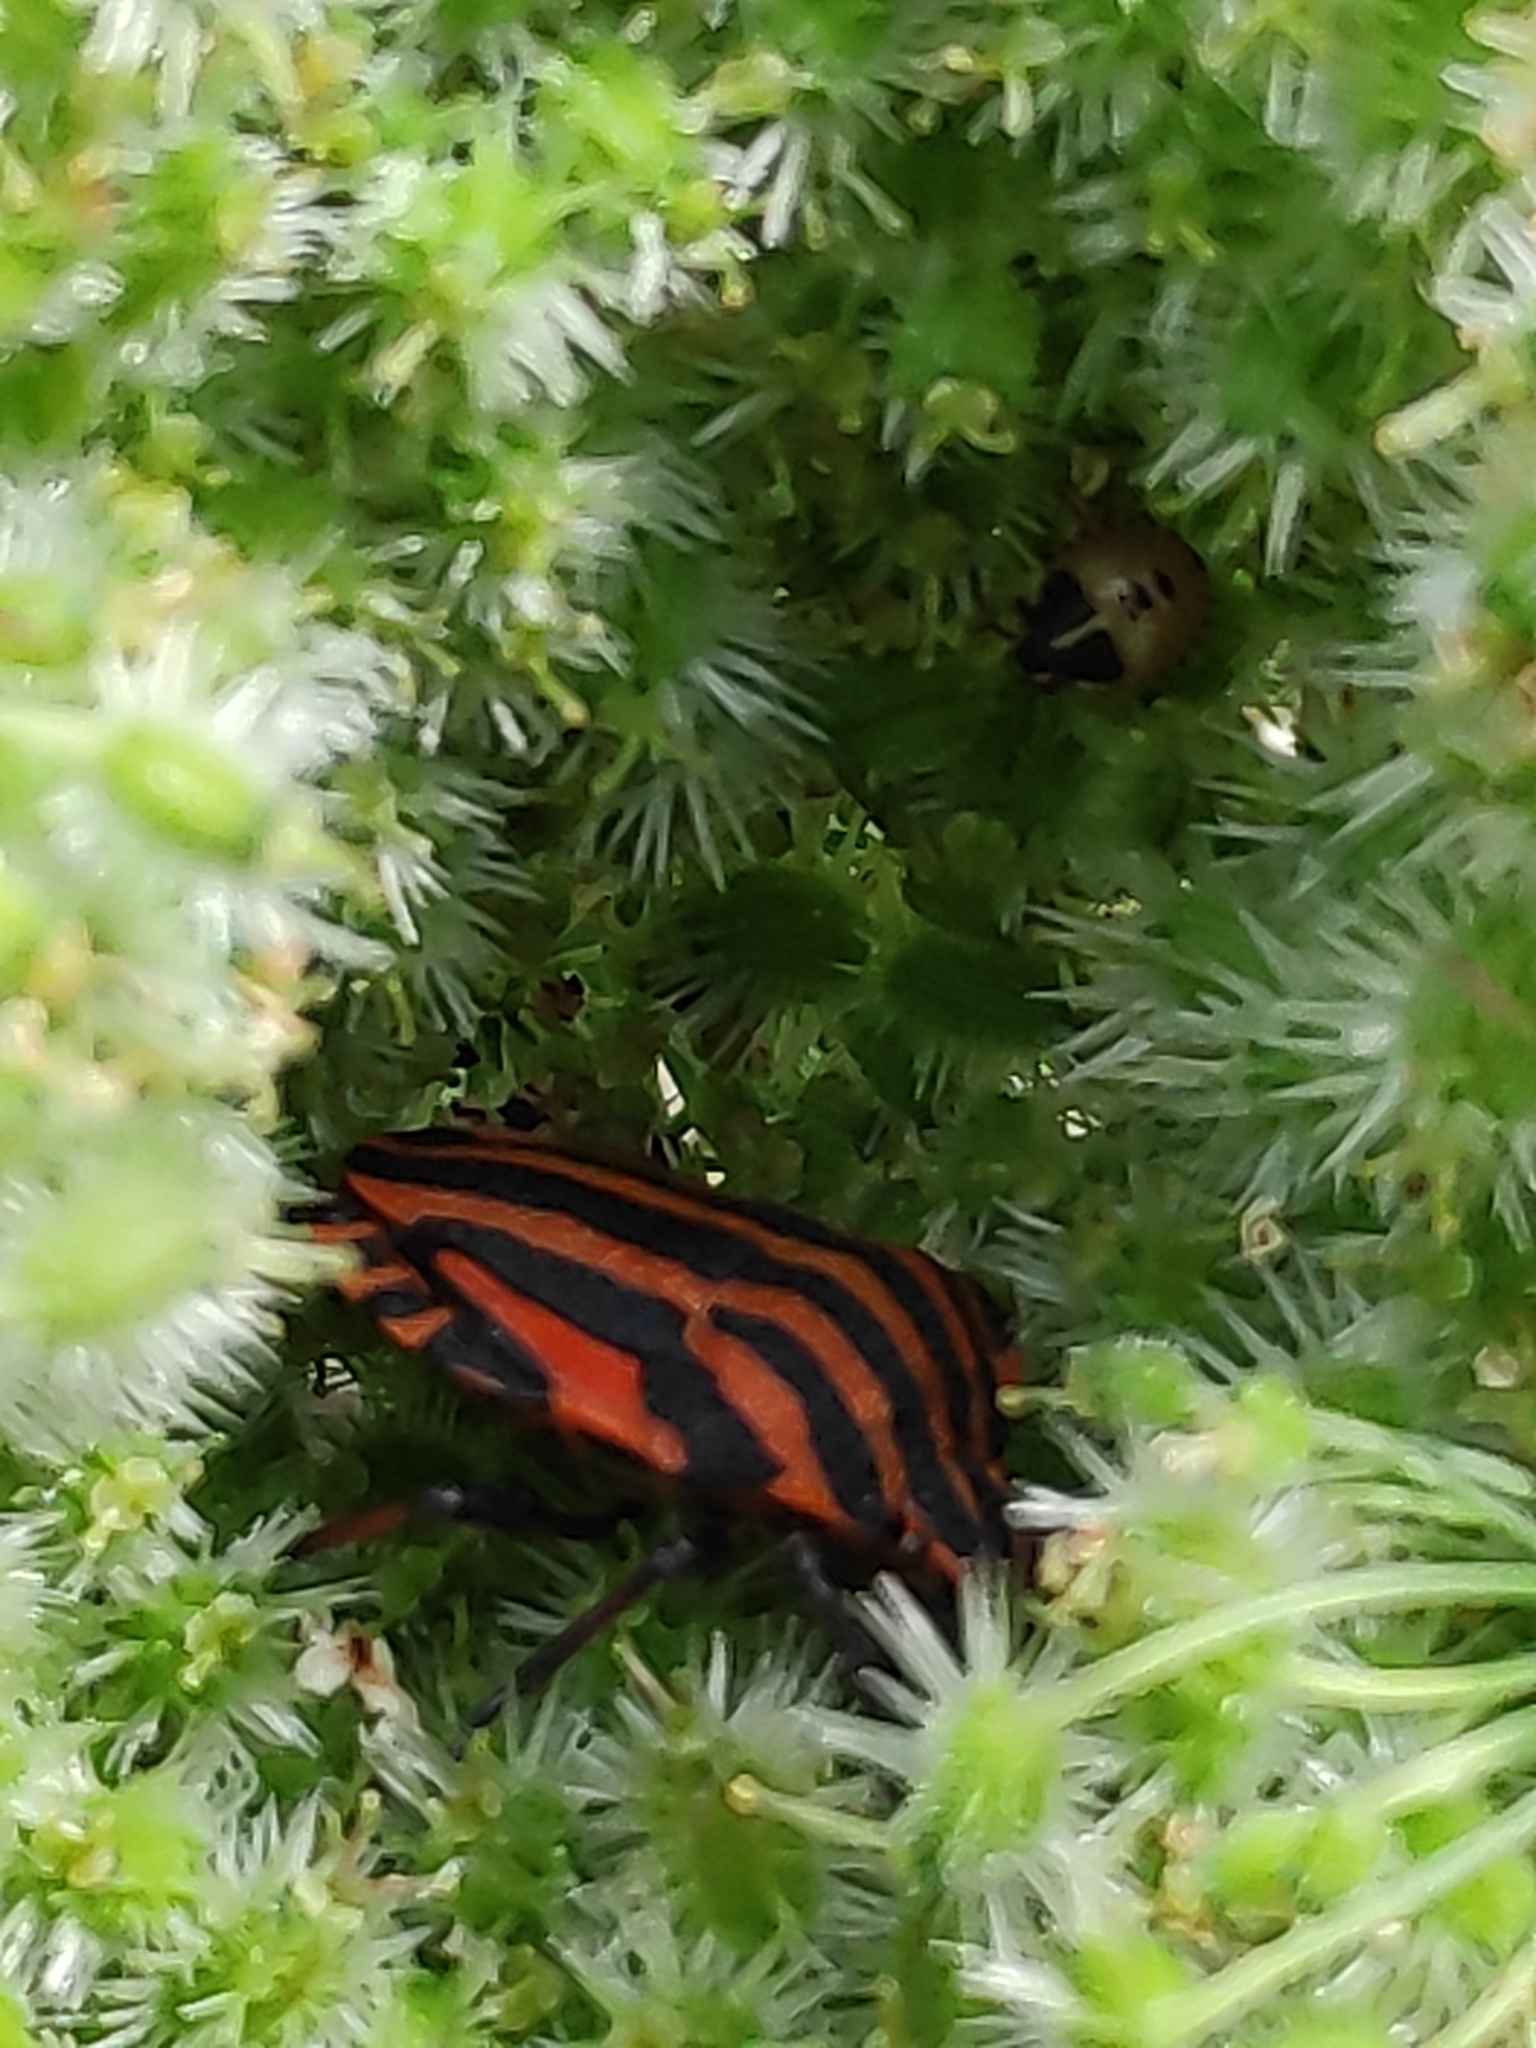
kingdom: Animalia
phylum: Arthropoda
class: Insecta
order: Hemiptera
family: Pentatomidae
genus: Graphosoma
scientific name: Graphosoma italicum
